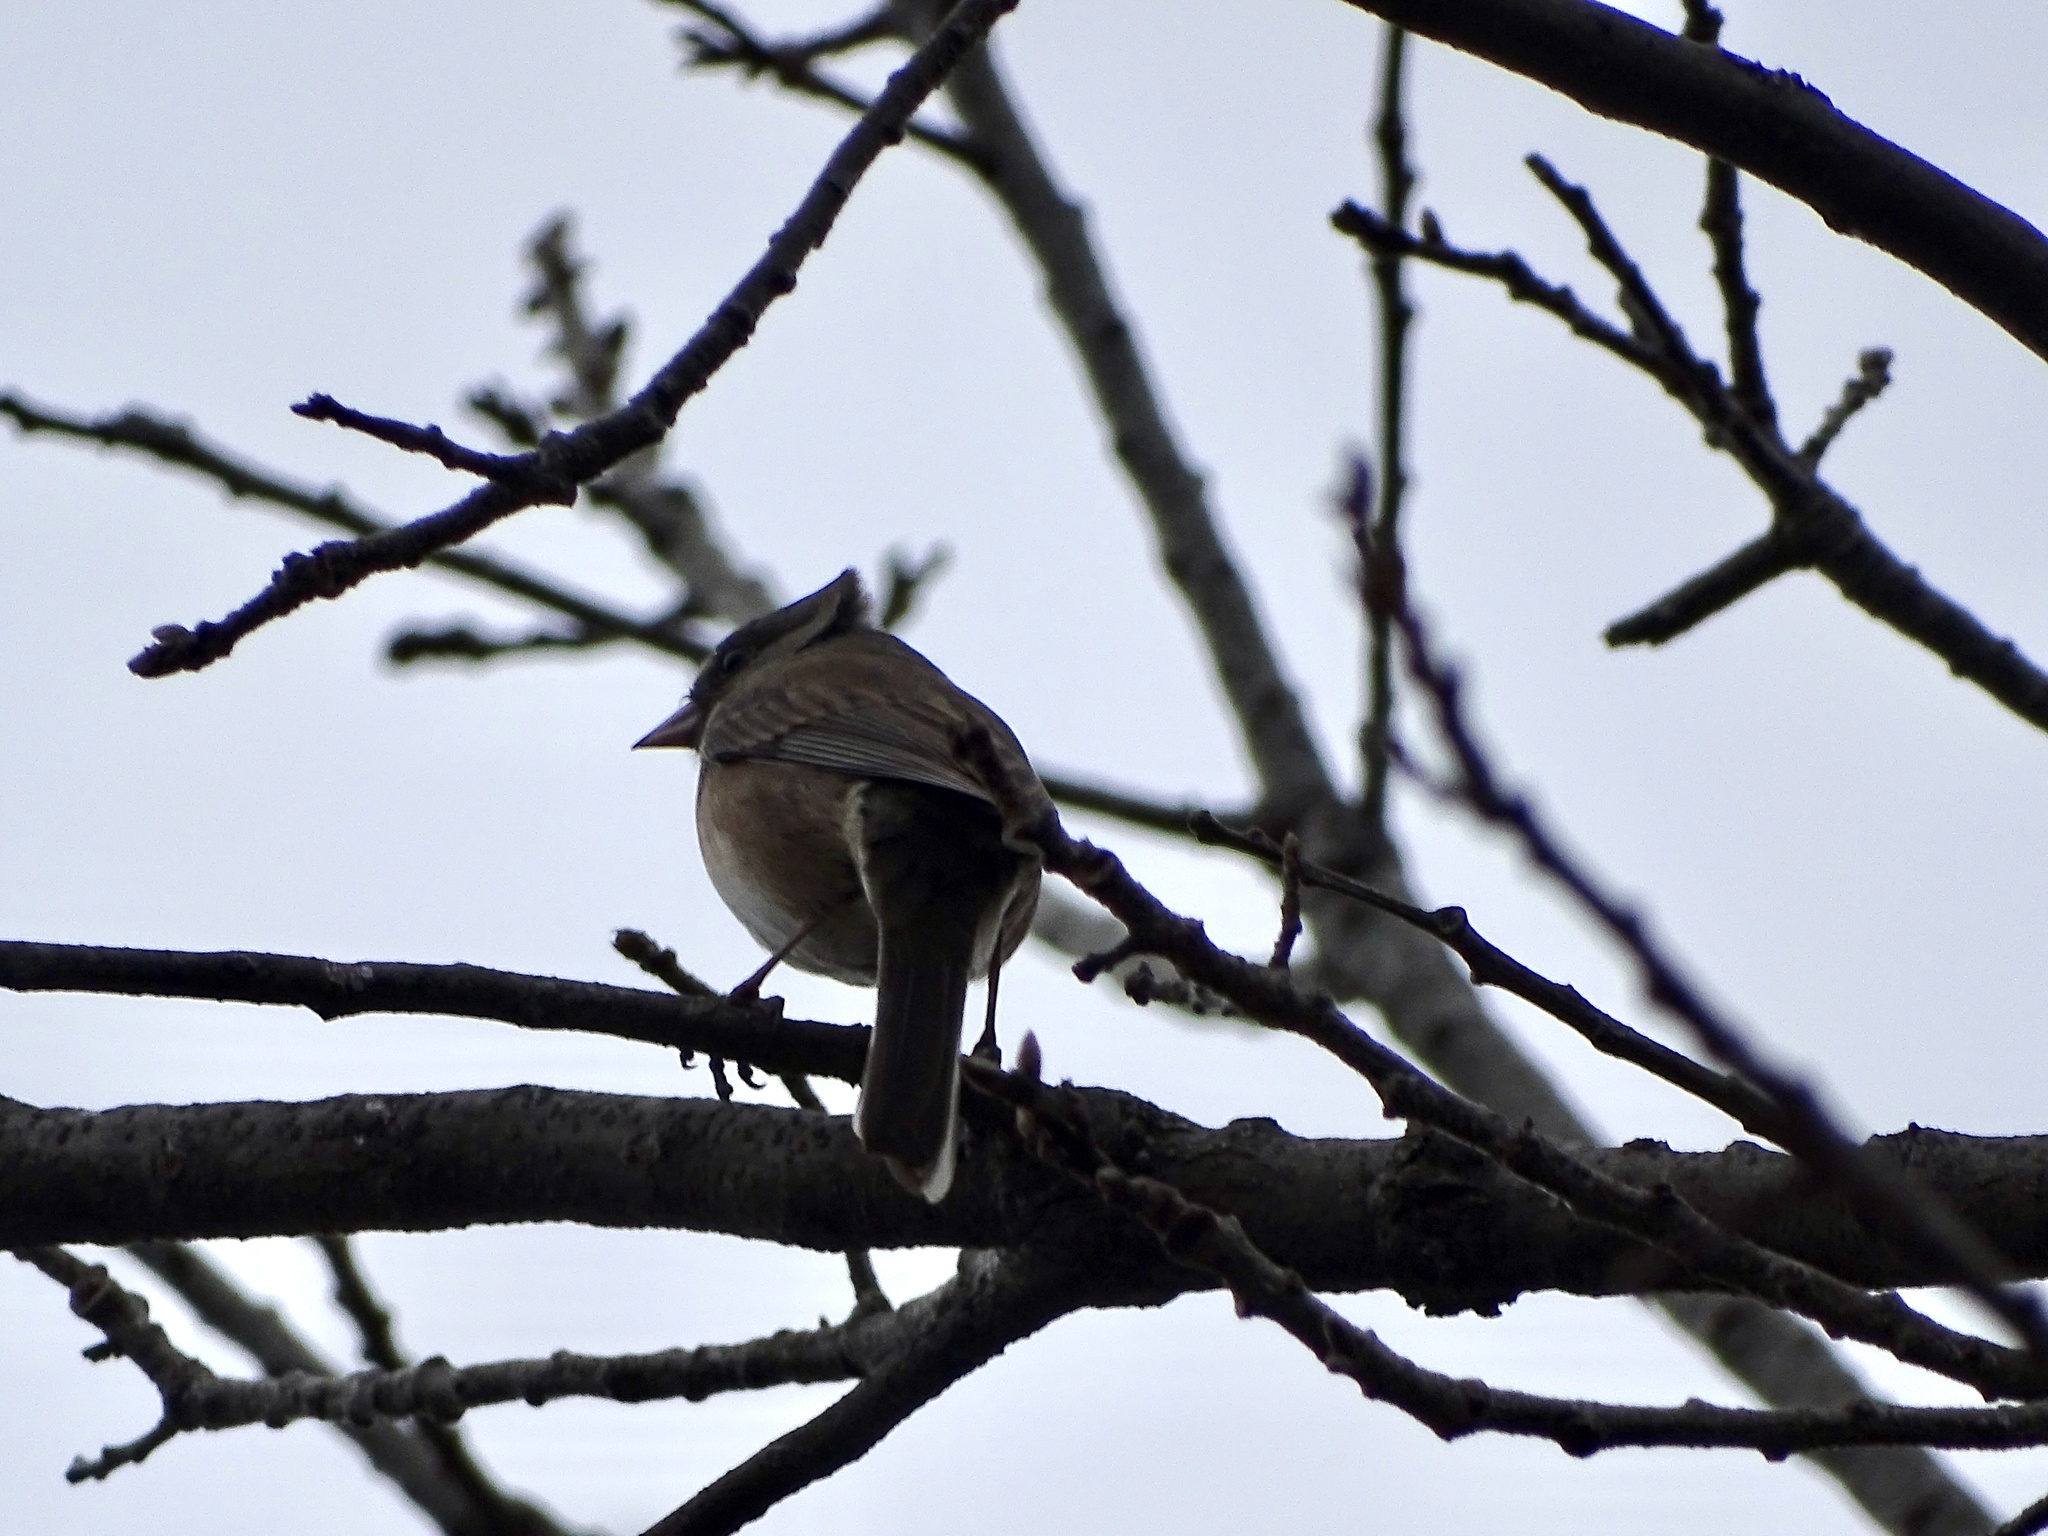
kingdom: Animalia
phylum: Chordata
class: Aves
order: Passeriformes
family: Passerellidae
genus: Junco
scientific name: Junco hyemalis
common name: Dark-eyed junco
